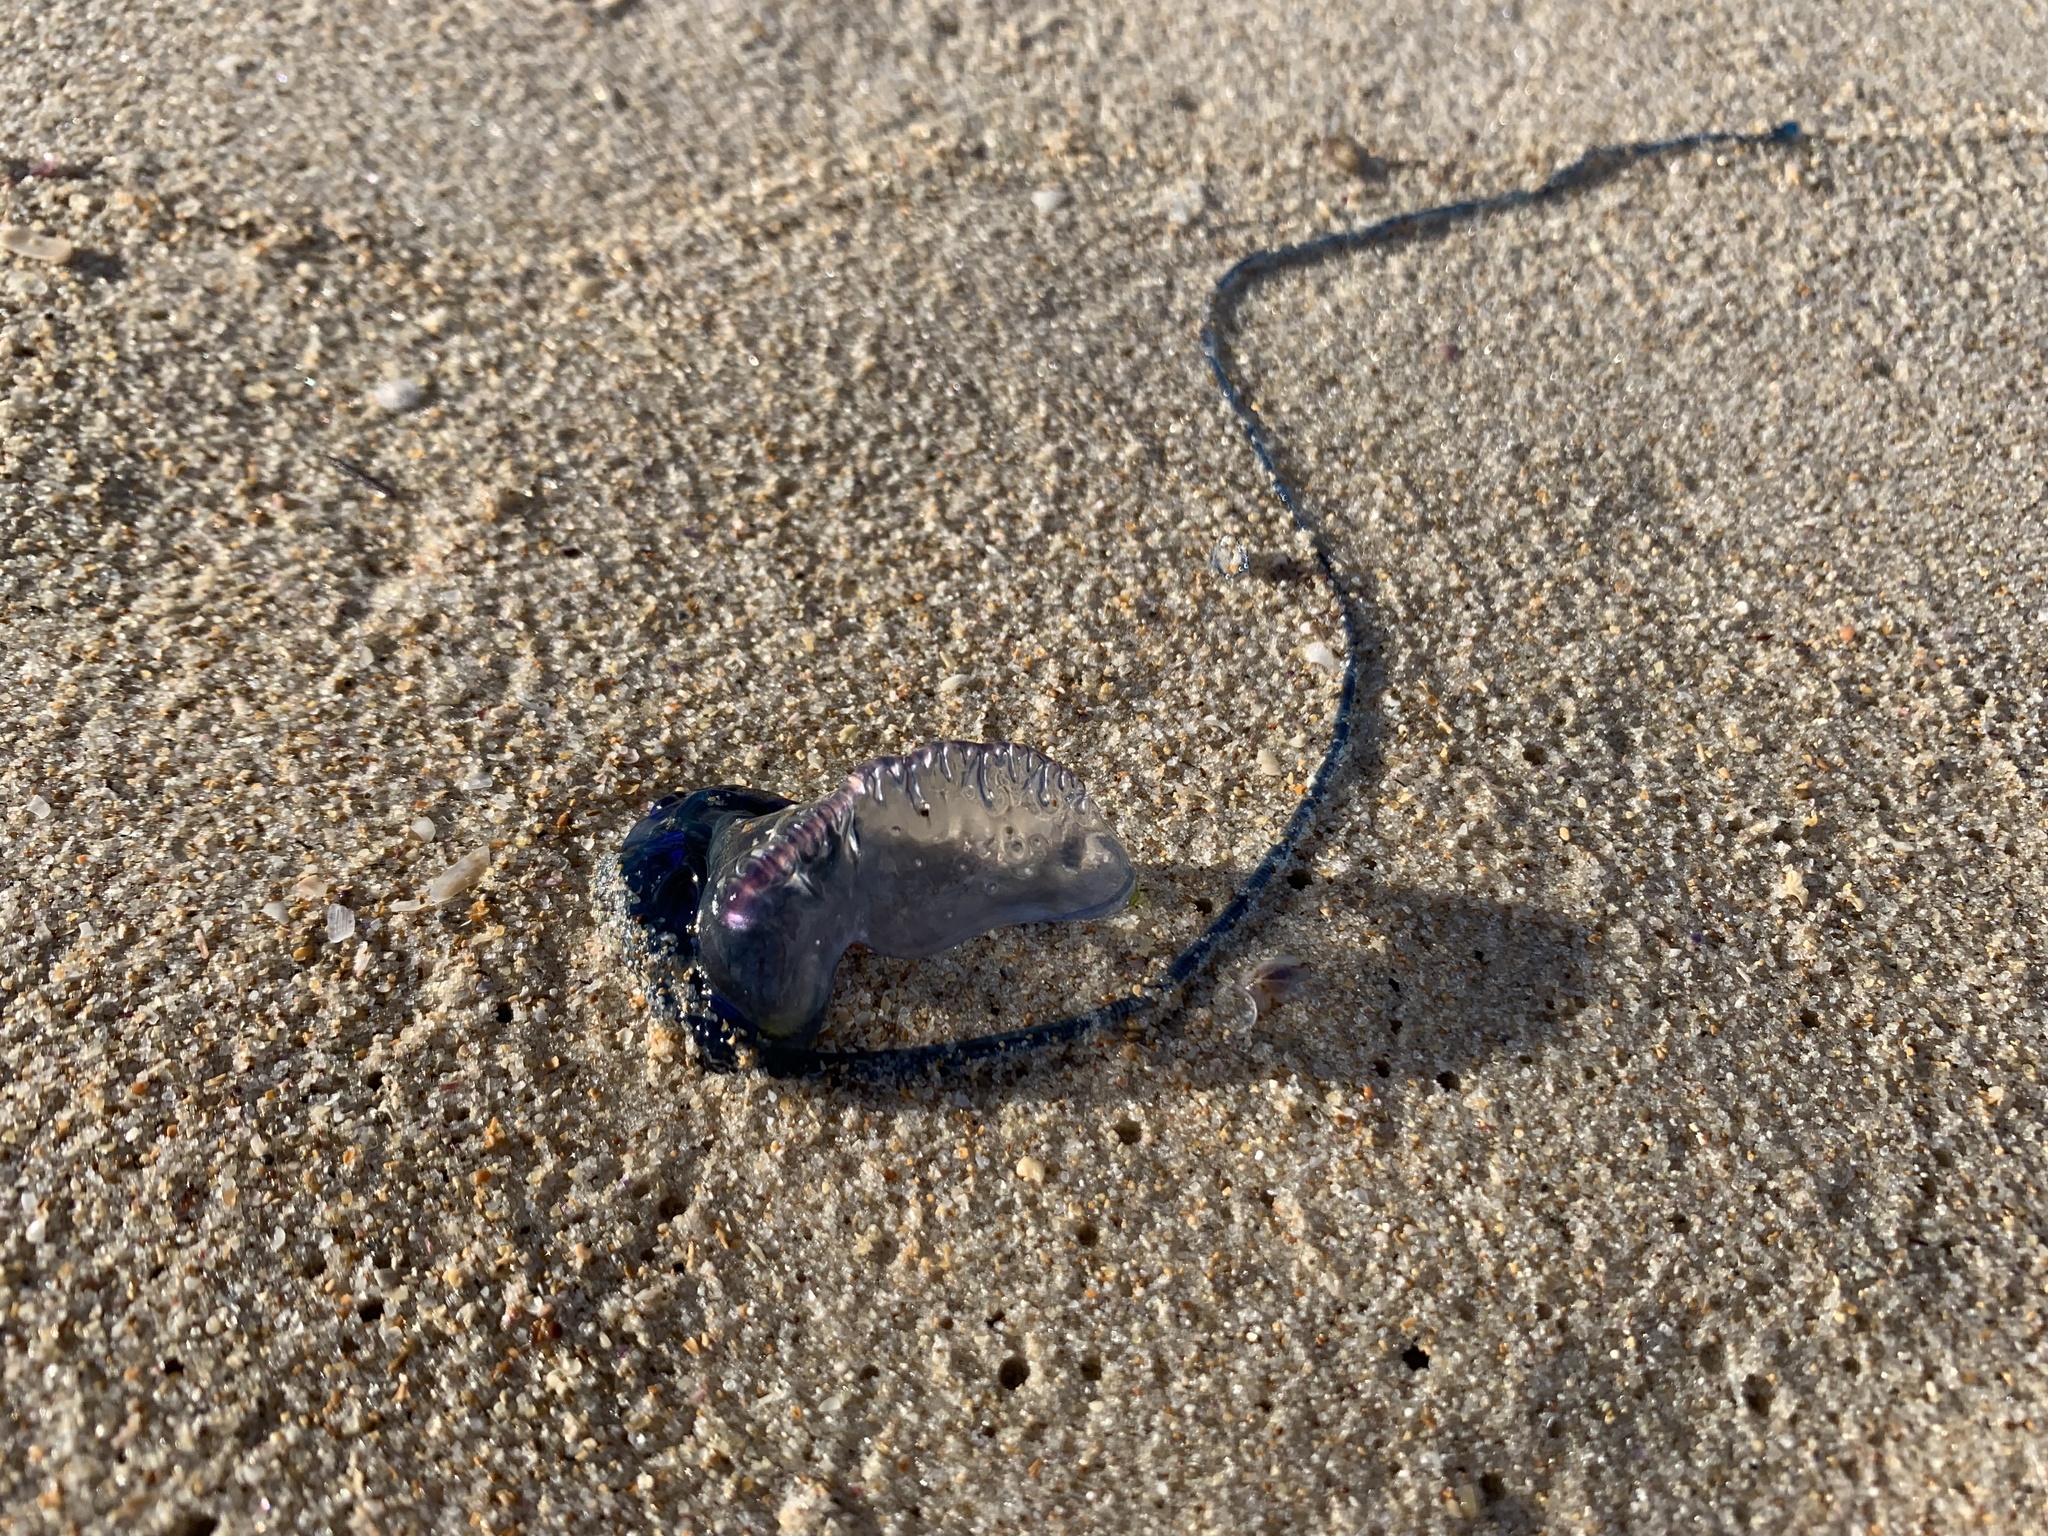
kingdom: Animalia
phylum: Cnidaria
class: Hydrozoa
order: Siphonophorae
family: Physaliidae
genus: Physalia
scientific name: Physalia physalis
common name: Portuguese man-of-war
